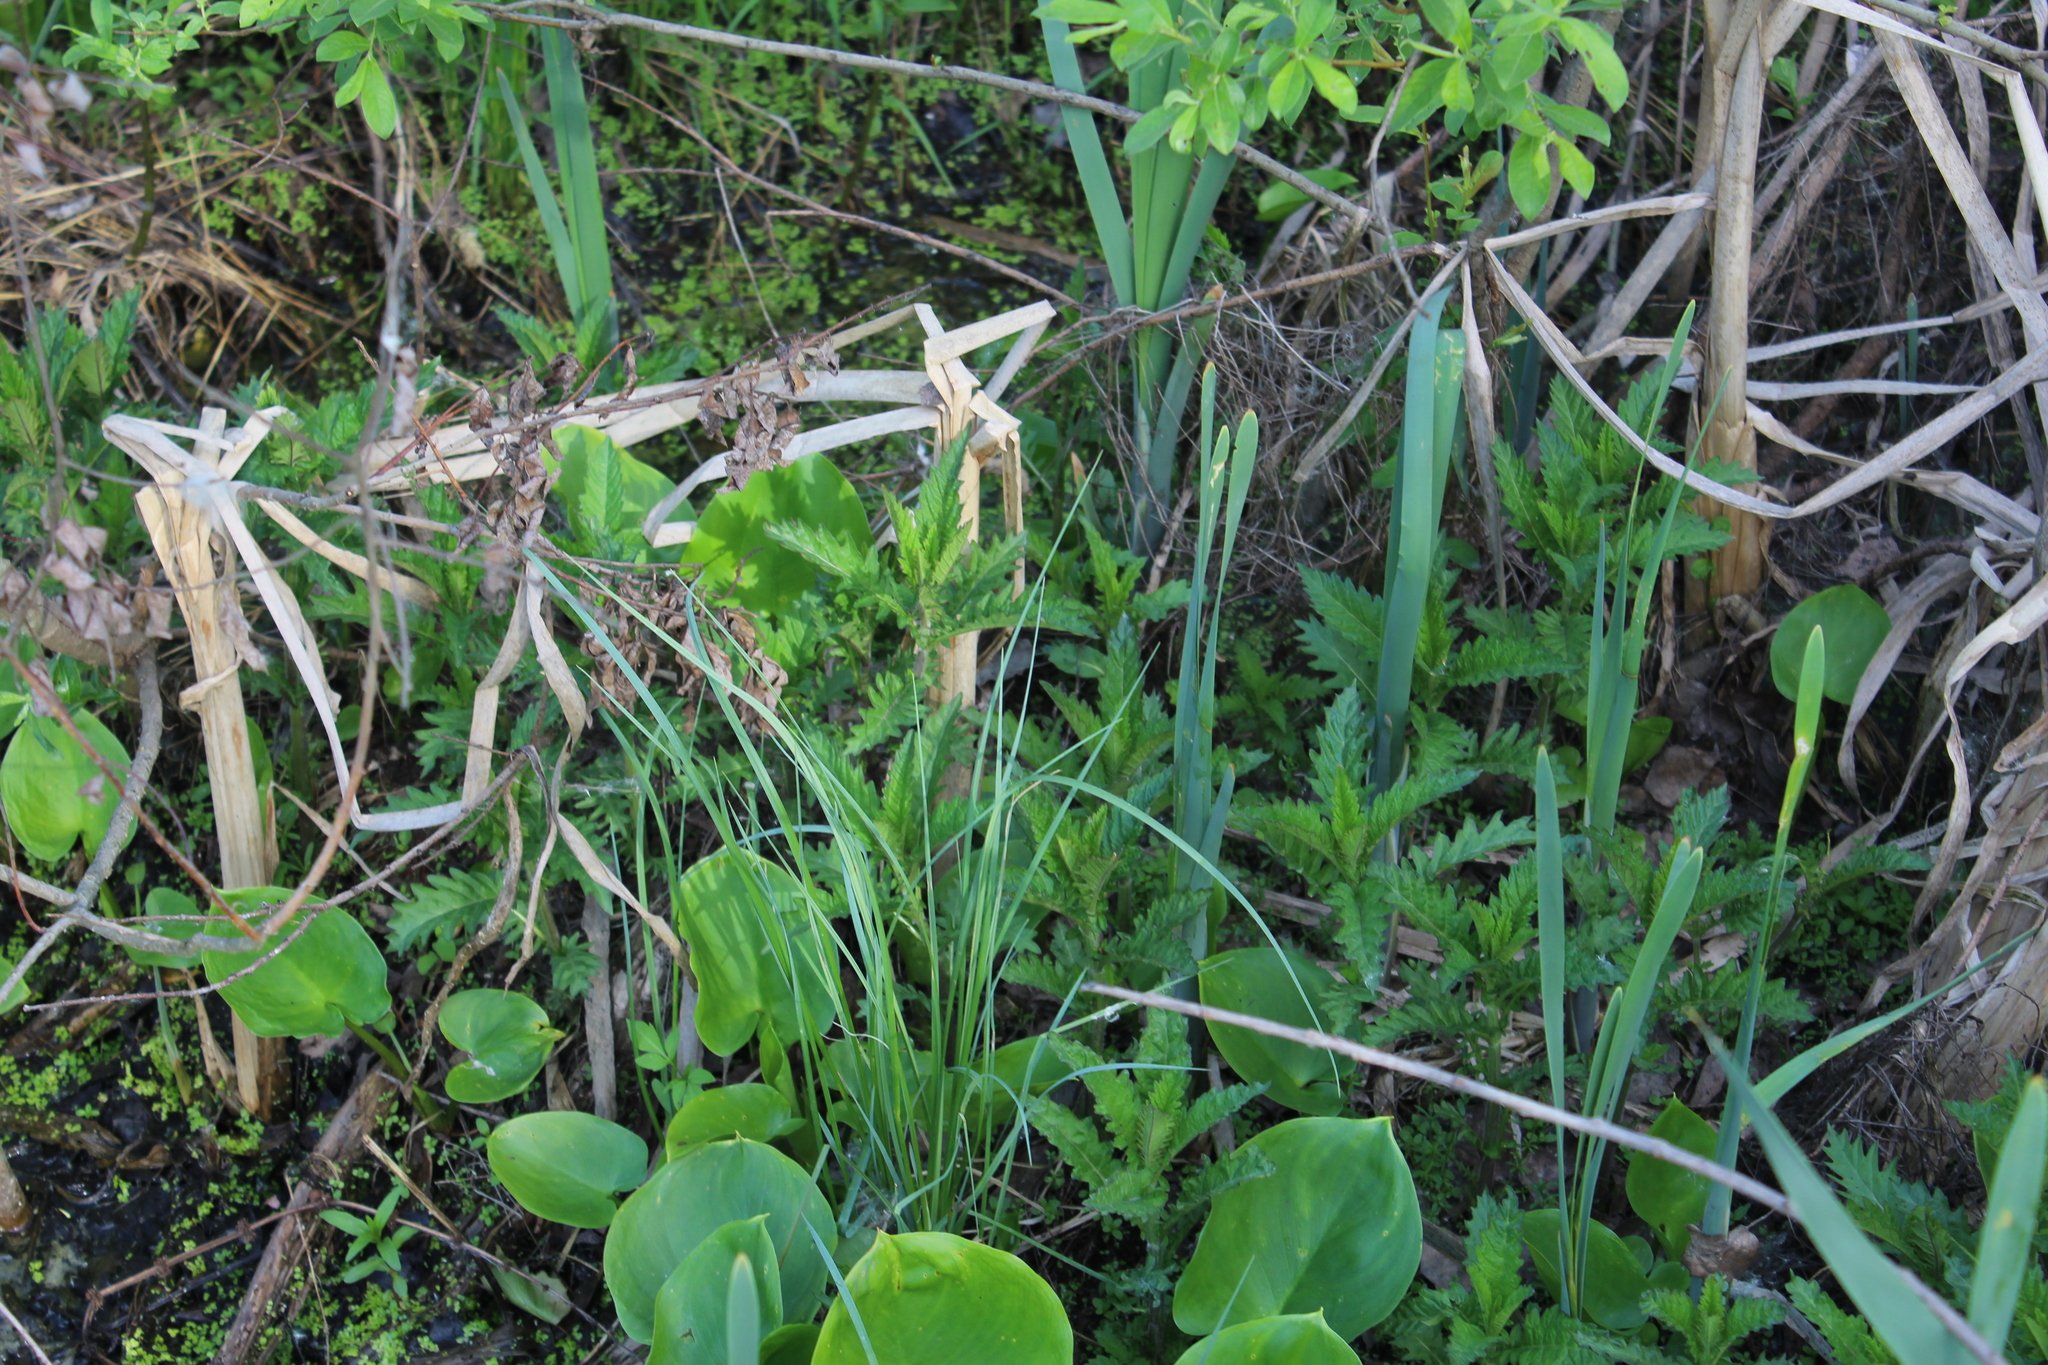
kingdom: Plantae
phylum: Tracheophyta
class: Magnoliopsida
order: Lamiales
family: Lamiaceae
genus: Lycopus
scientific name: Lycopus europaeus
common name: European bugleweed
